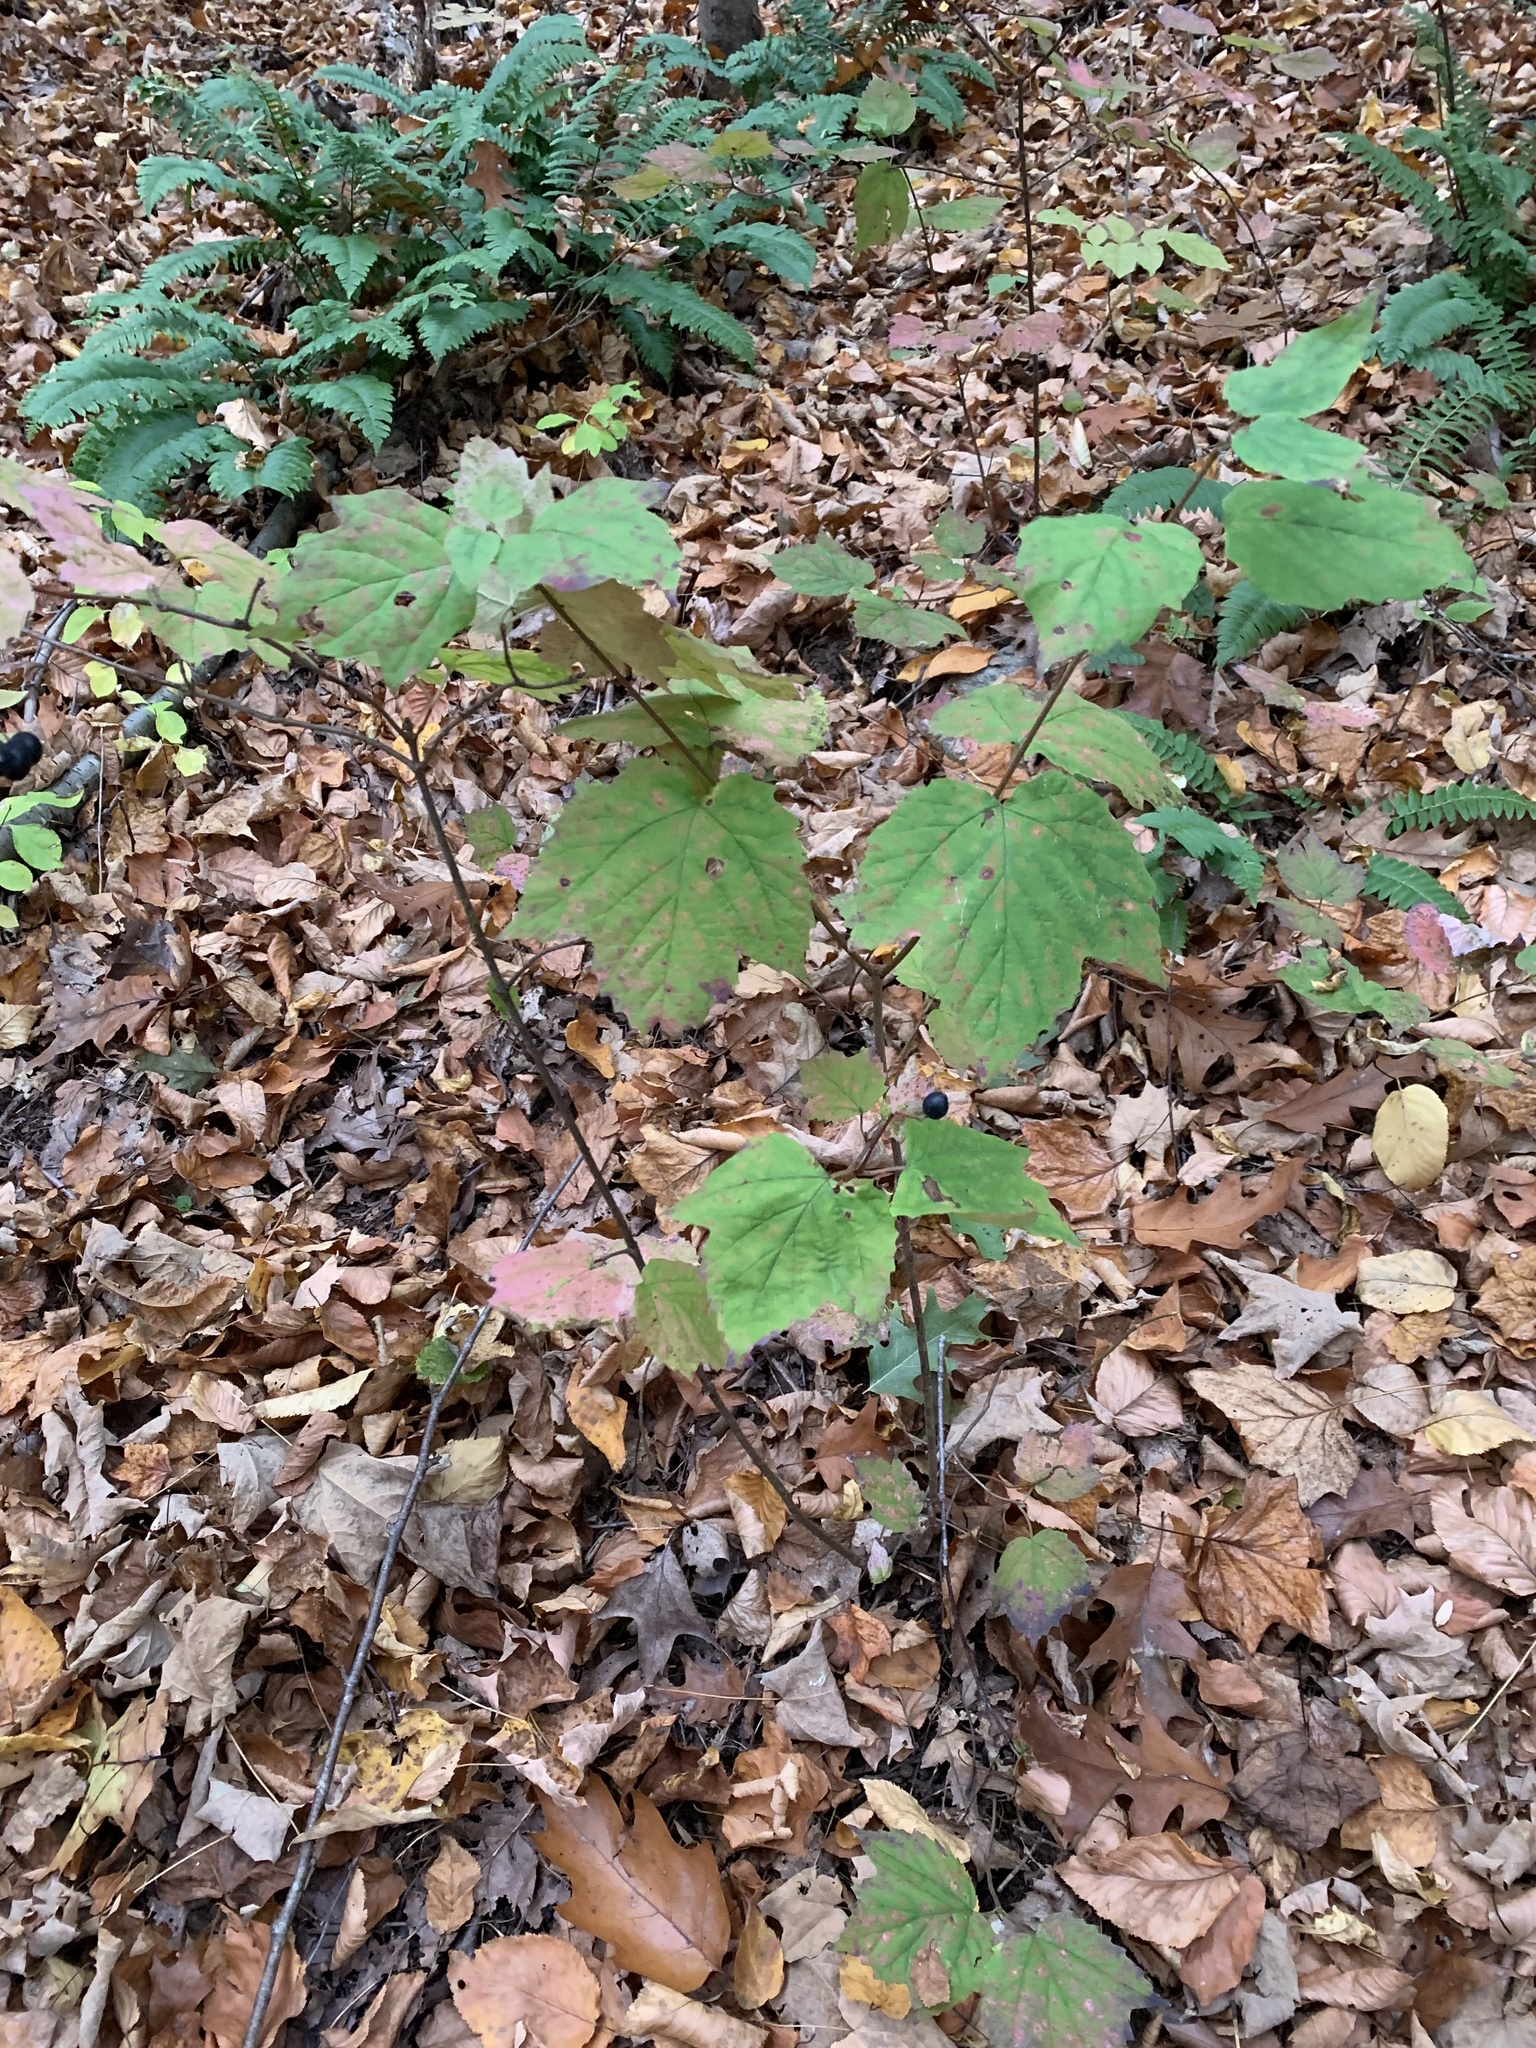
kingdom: Plantae
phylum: Tracheophyta
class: Magnoliopsida
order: Dipsacales
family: Viburnaceae
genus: Viburnum
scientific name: Viburnum acerifolium
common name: Dockmackie
